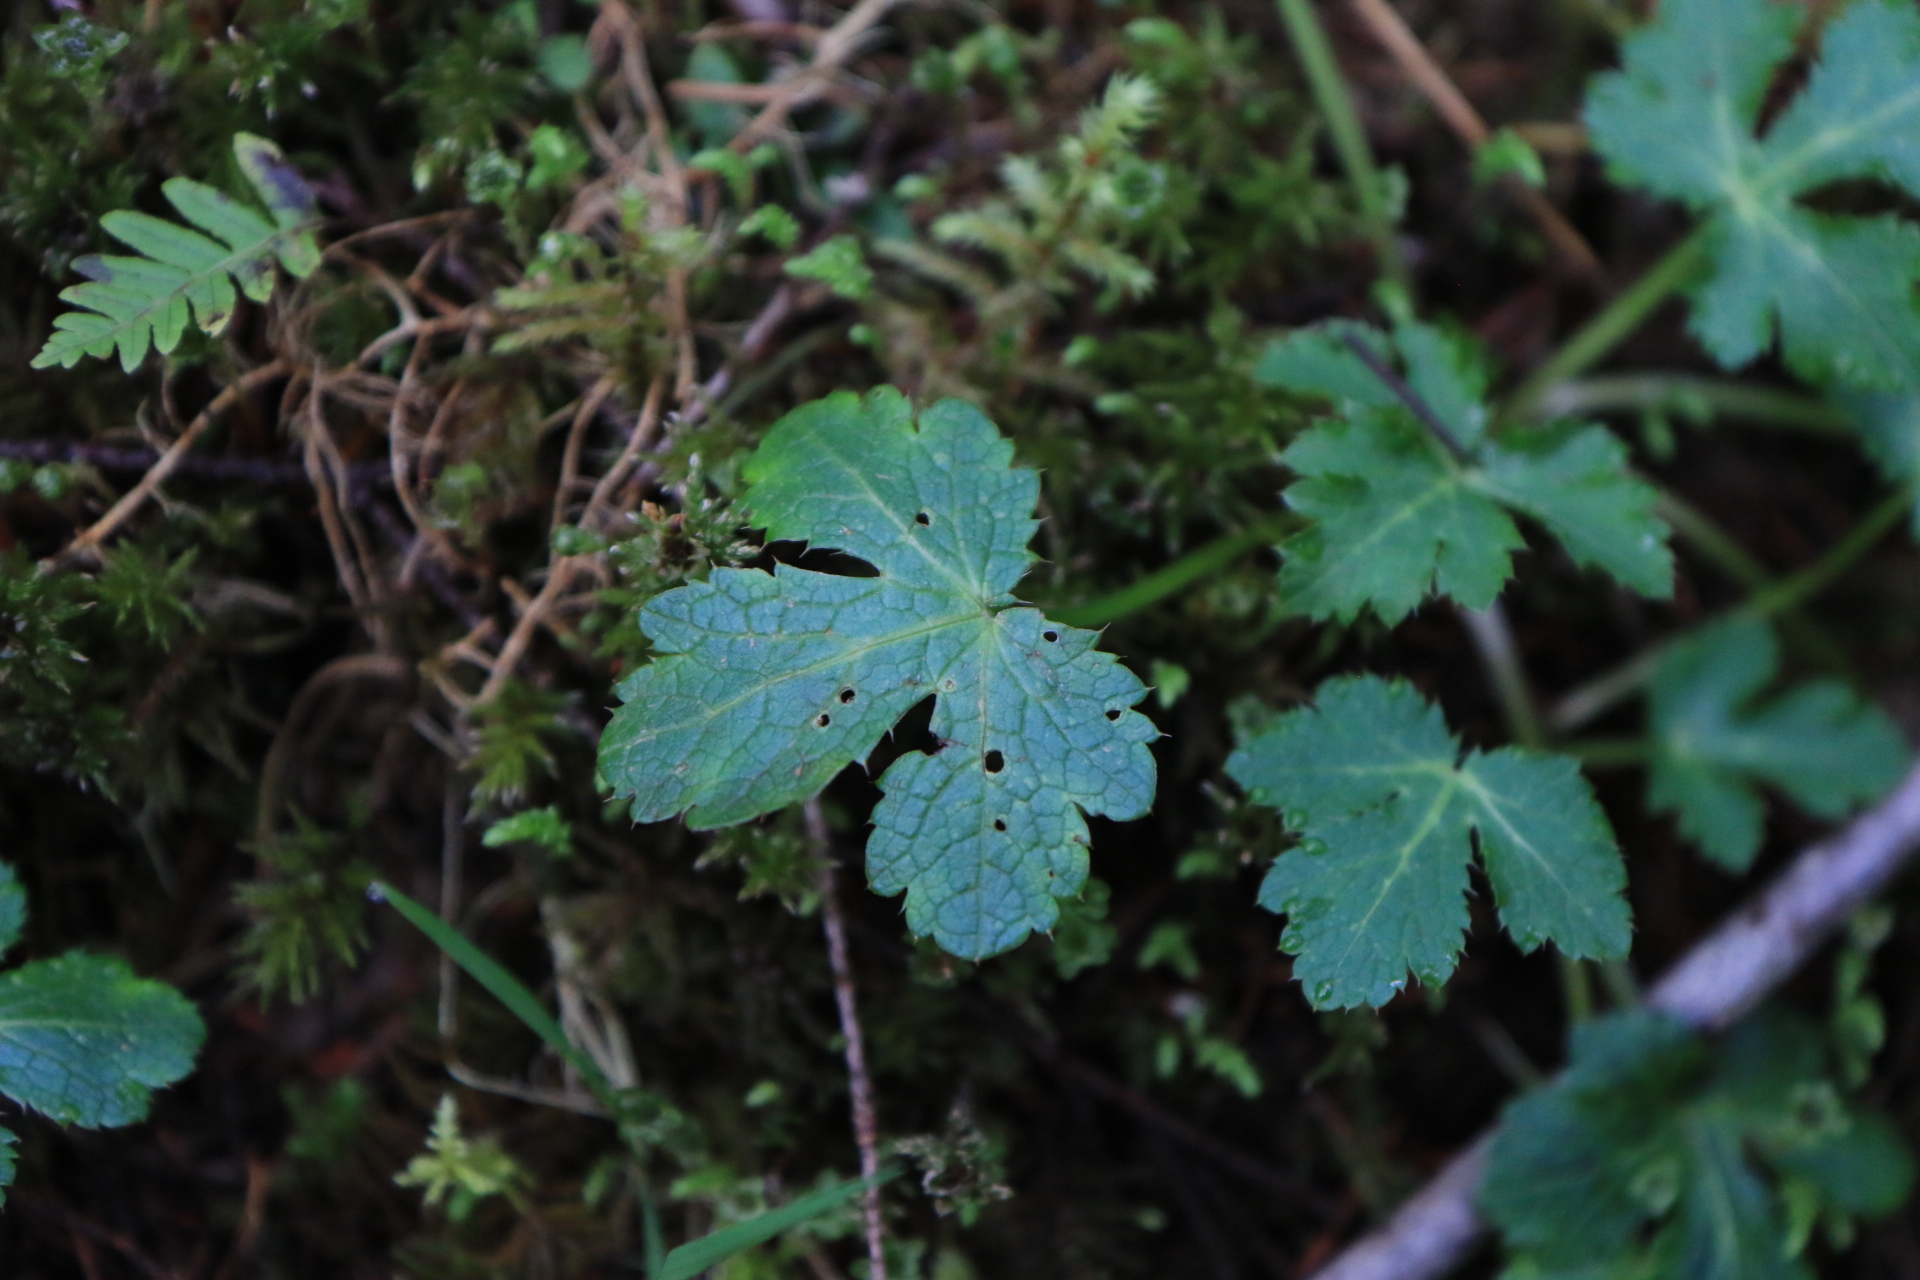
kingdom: Plantae
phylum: Tracheophyta
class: Magnoliopsida
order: Apiales
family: Apiaceae
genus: Sanicula
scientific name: Sanicula crassicaulis
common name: Western snakeroot
